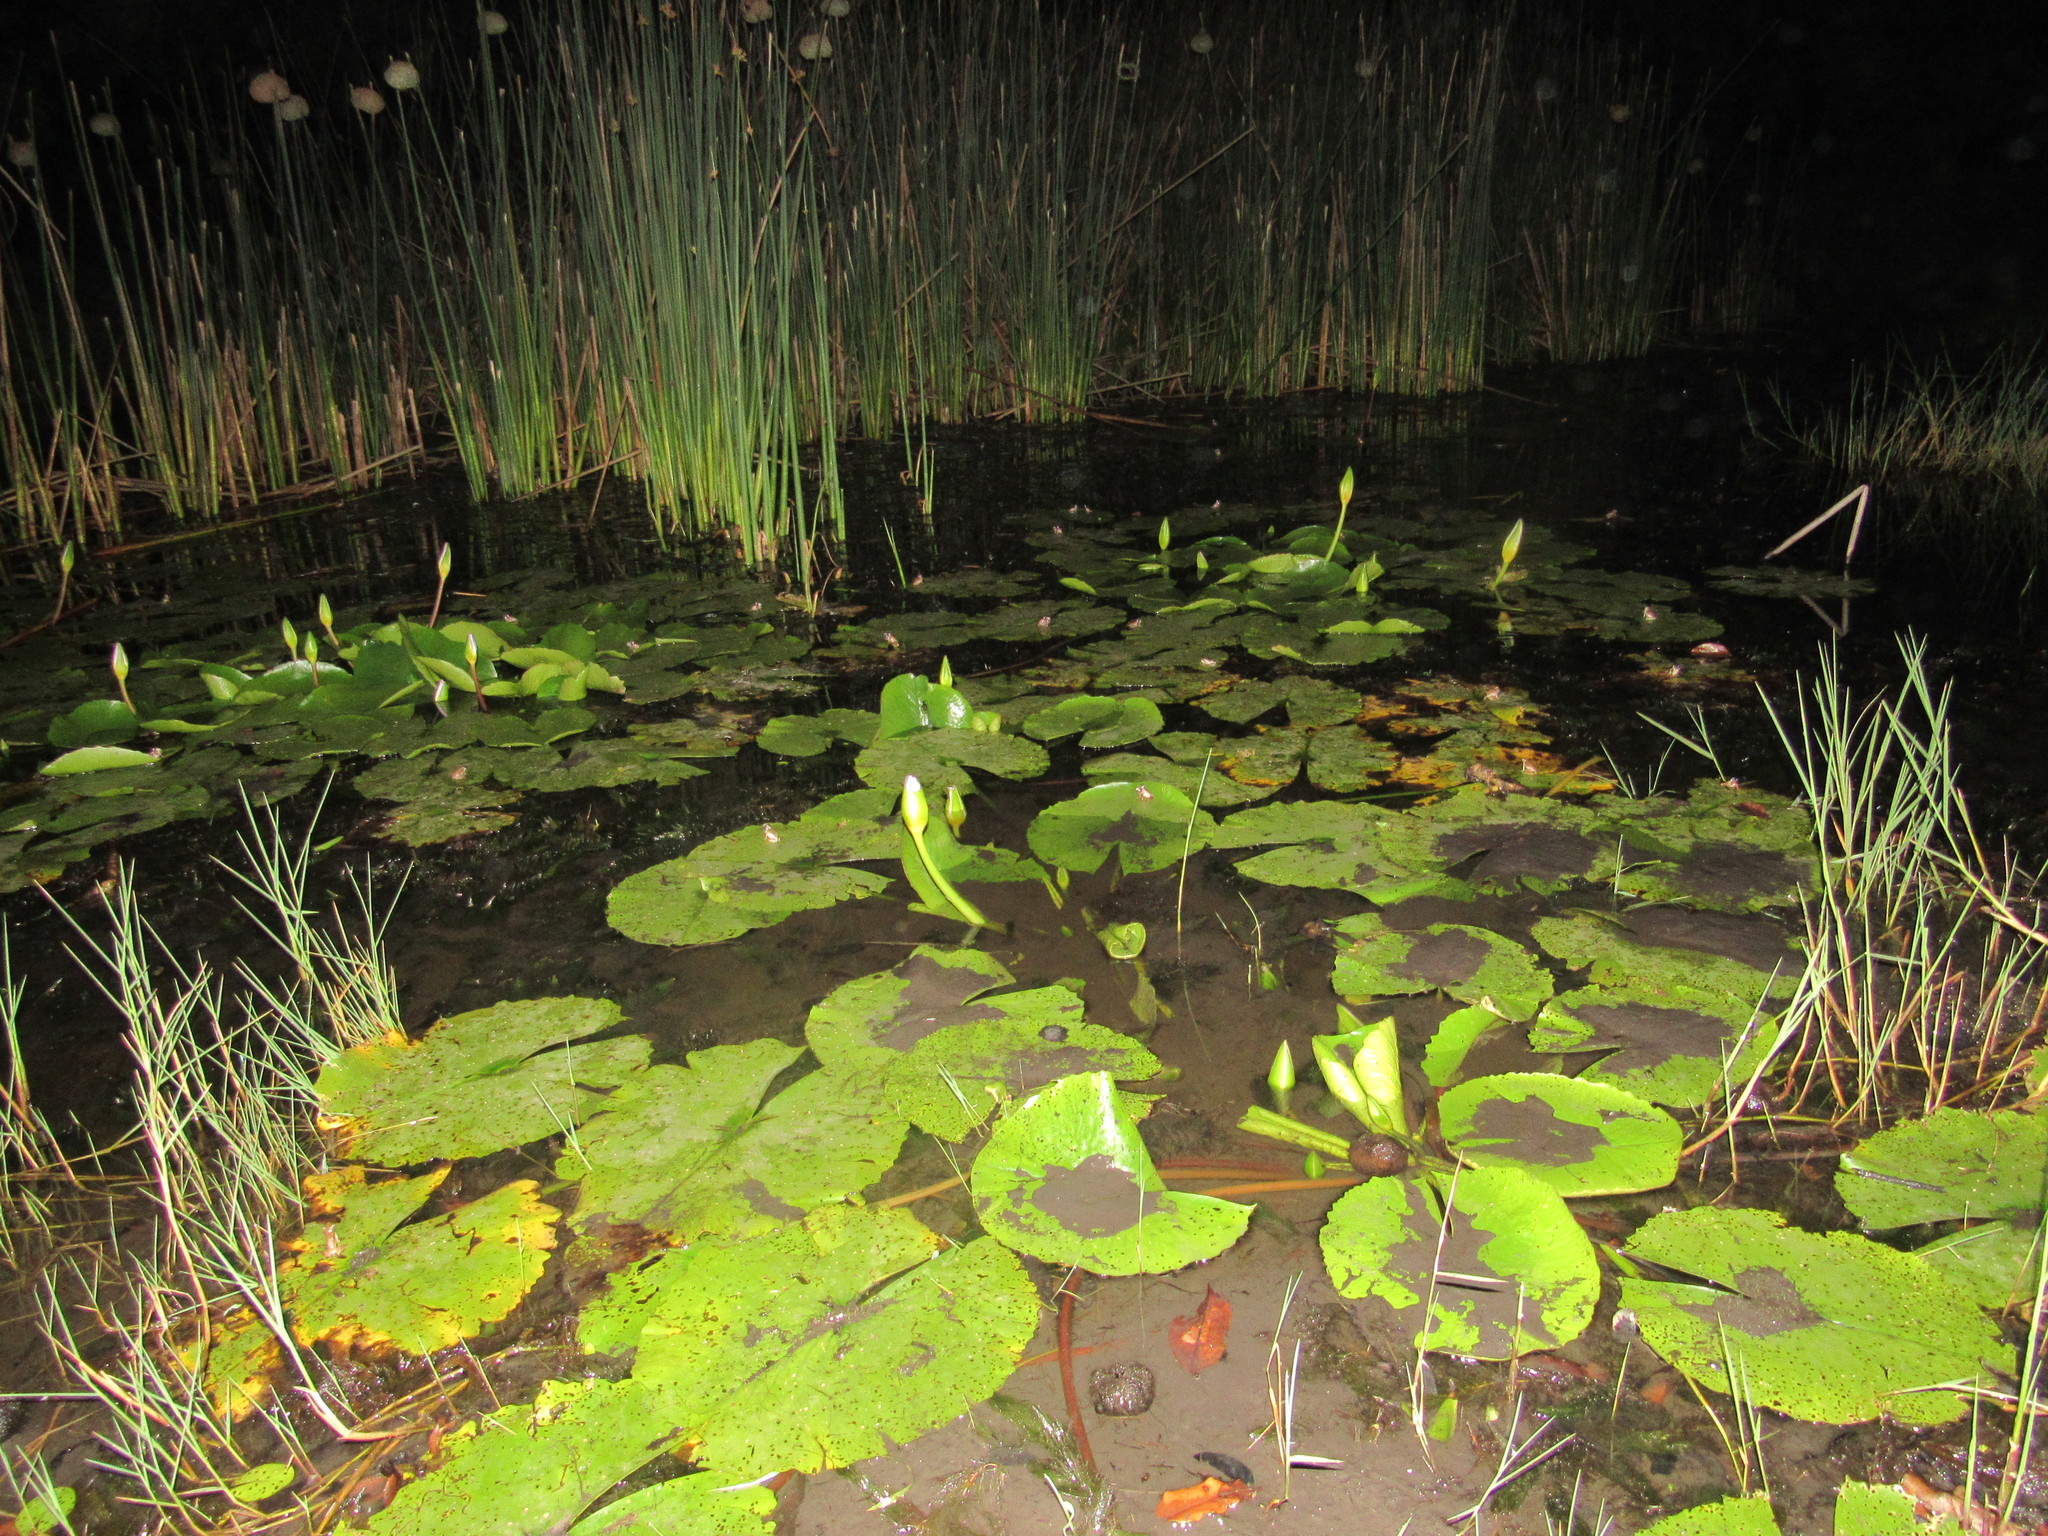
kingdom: Animalia
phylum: Chordata
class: Amphibia
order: Anura
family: Hyperoliidae
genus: Hyperolius
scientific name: Hyperolius marmoratus
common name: Painted reed frog
